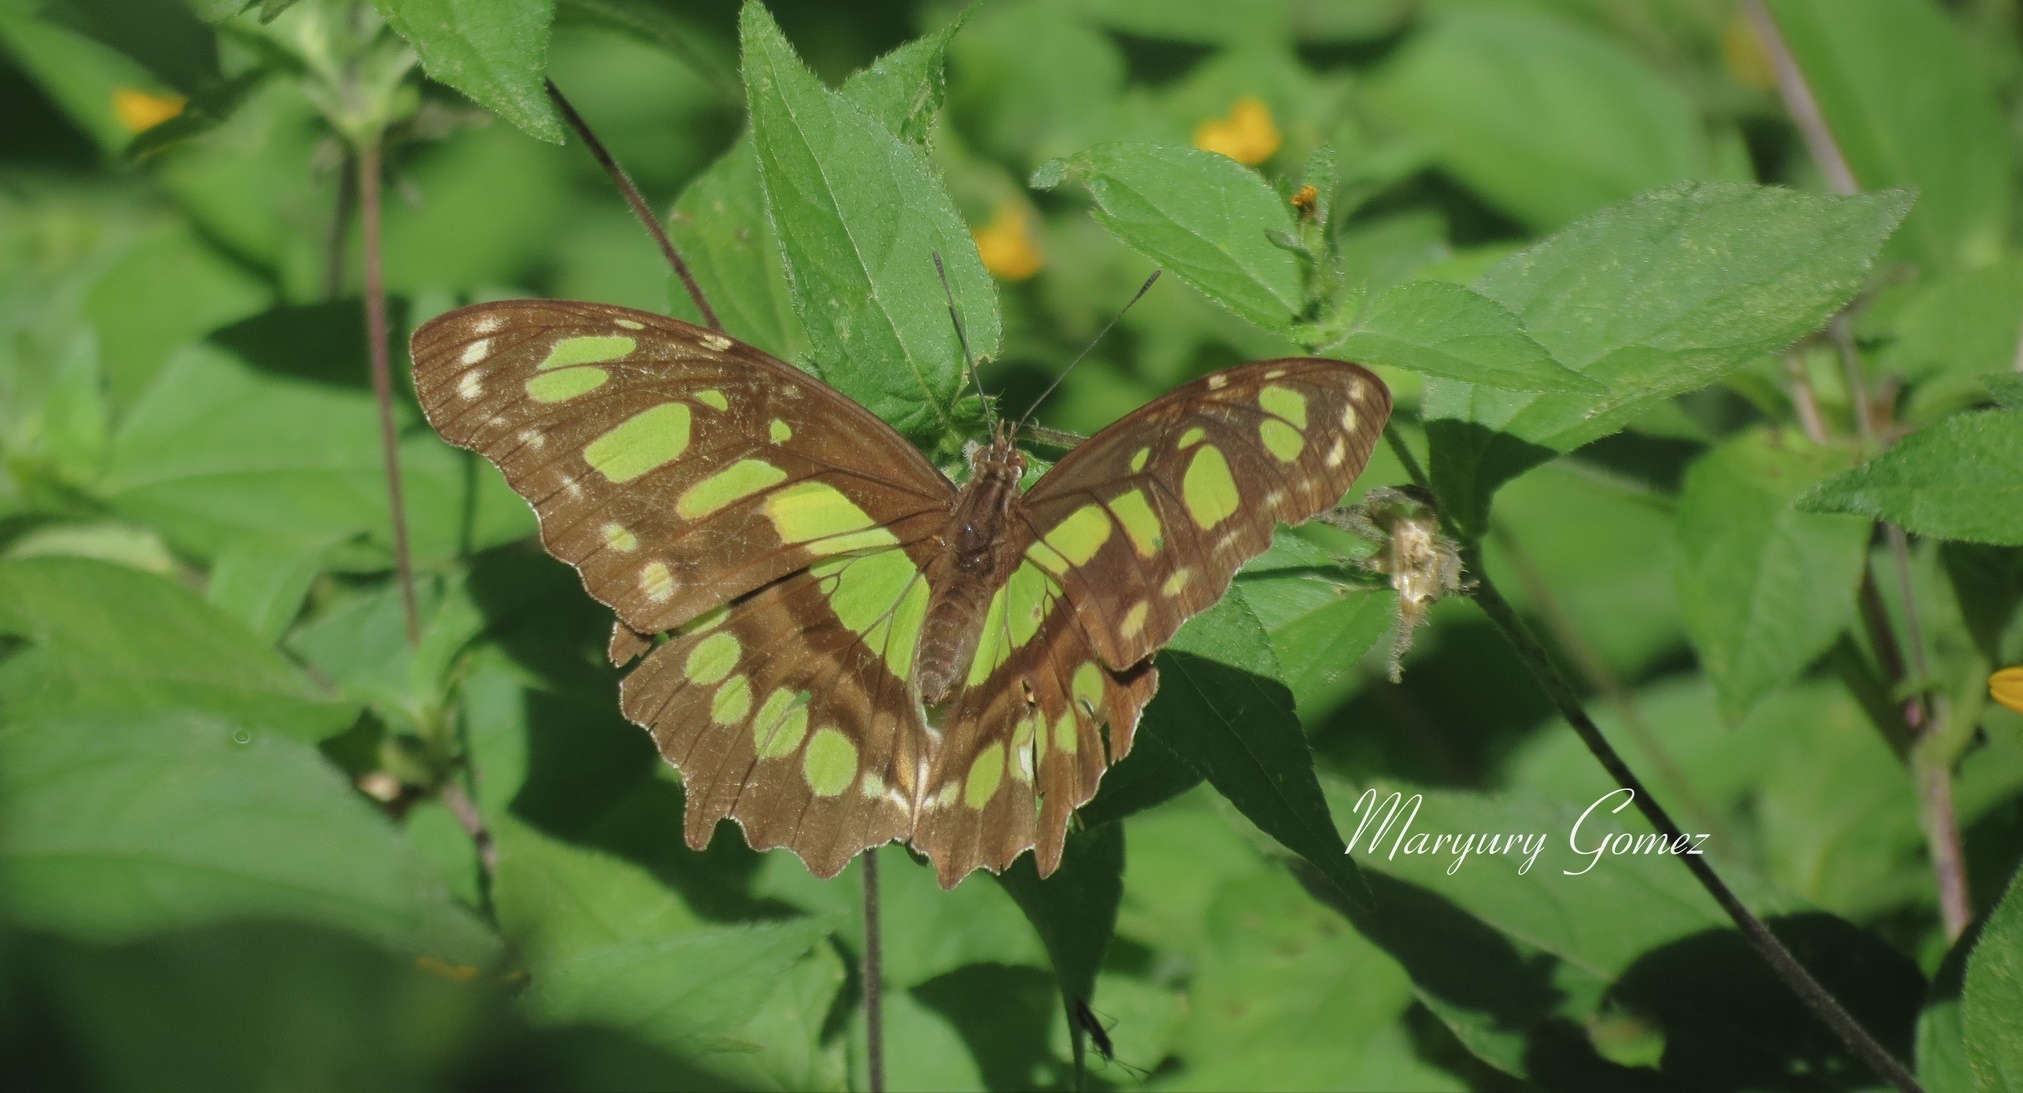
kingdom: Animalia
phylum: Arthropoda
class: Insecta
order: Lepidoptera
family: Nymphalidae
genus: Siproeta
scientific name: Siproeta stelenes
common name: Malachite
